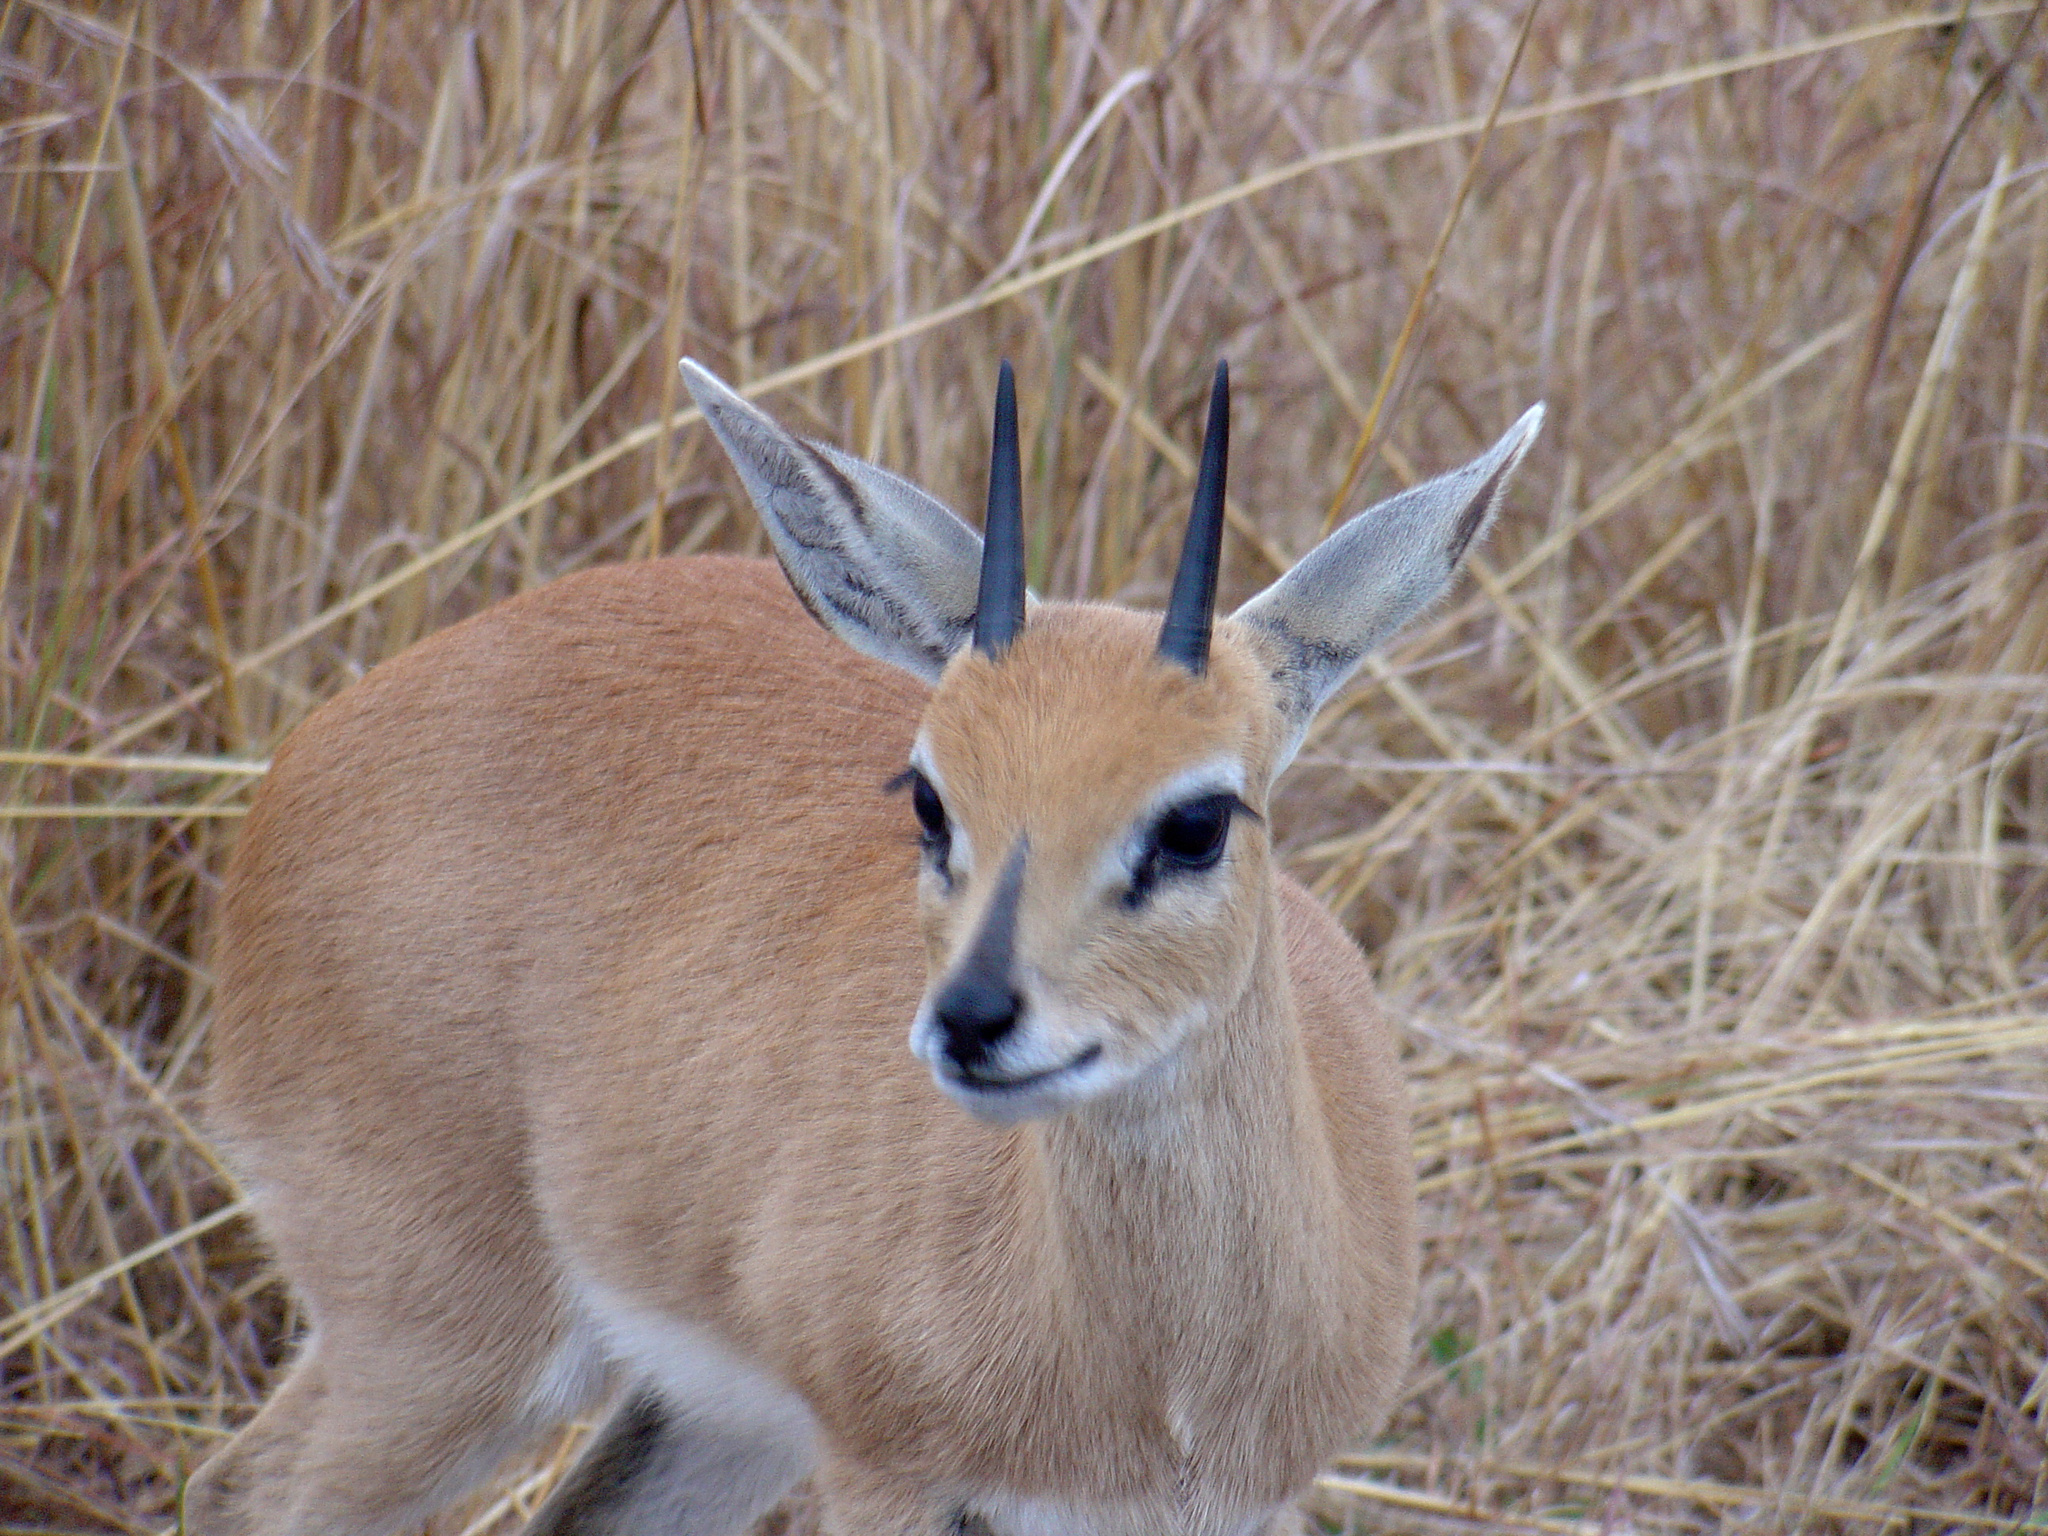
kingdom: Animalia
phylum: Chordata
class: Mammalia
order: Artiodactyla
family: Bovidae
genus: Raphicerus
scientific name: Raphicerus campestris
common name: Steenbok
